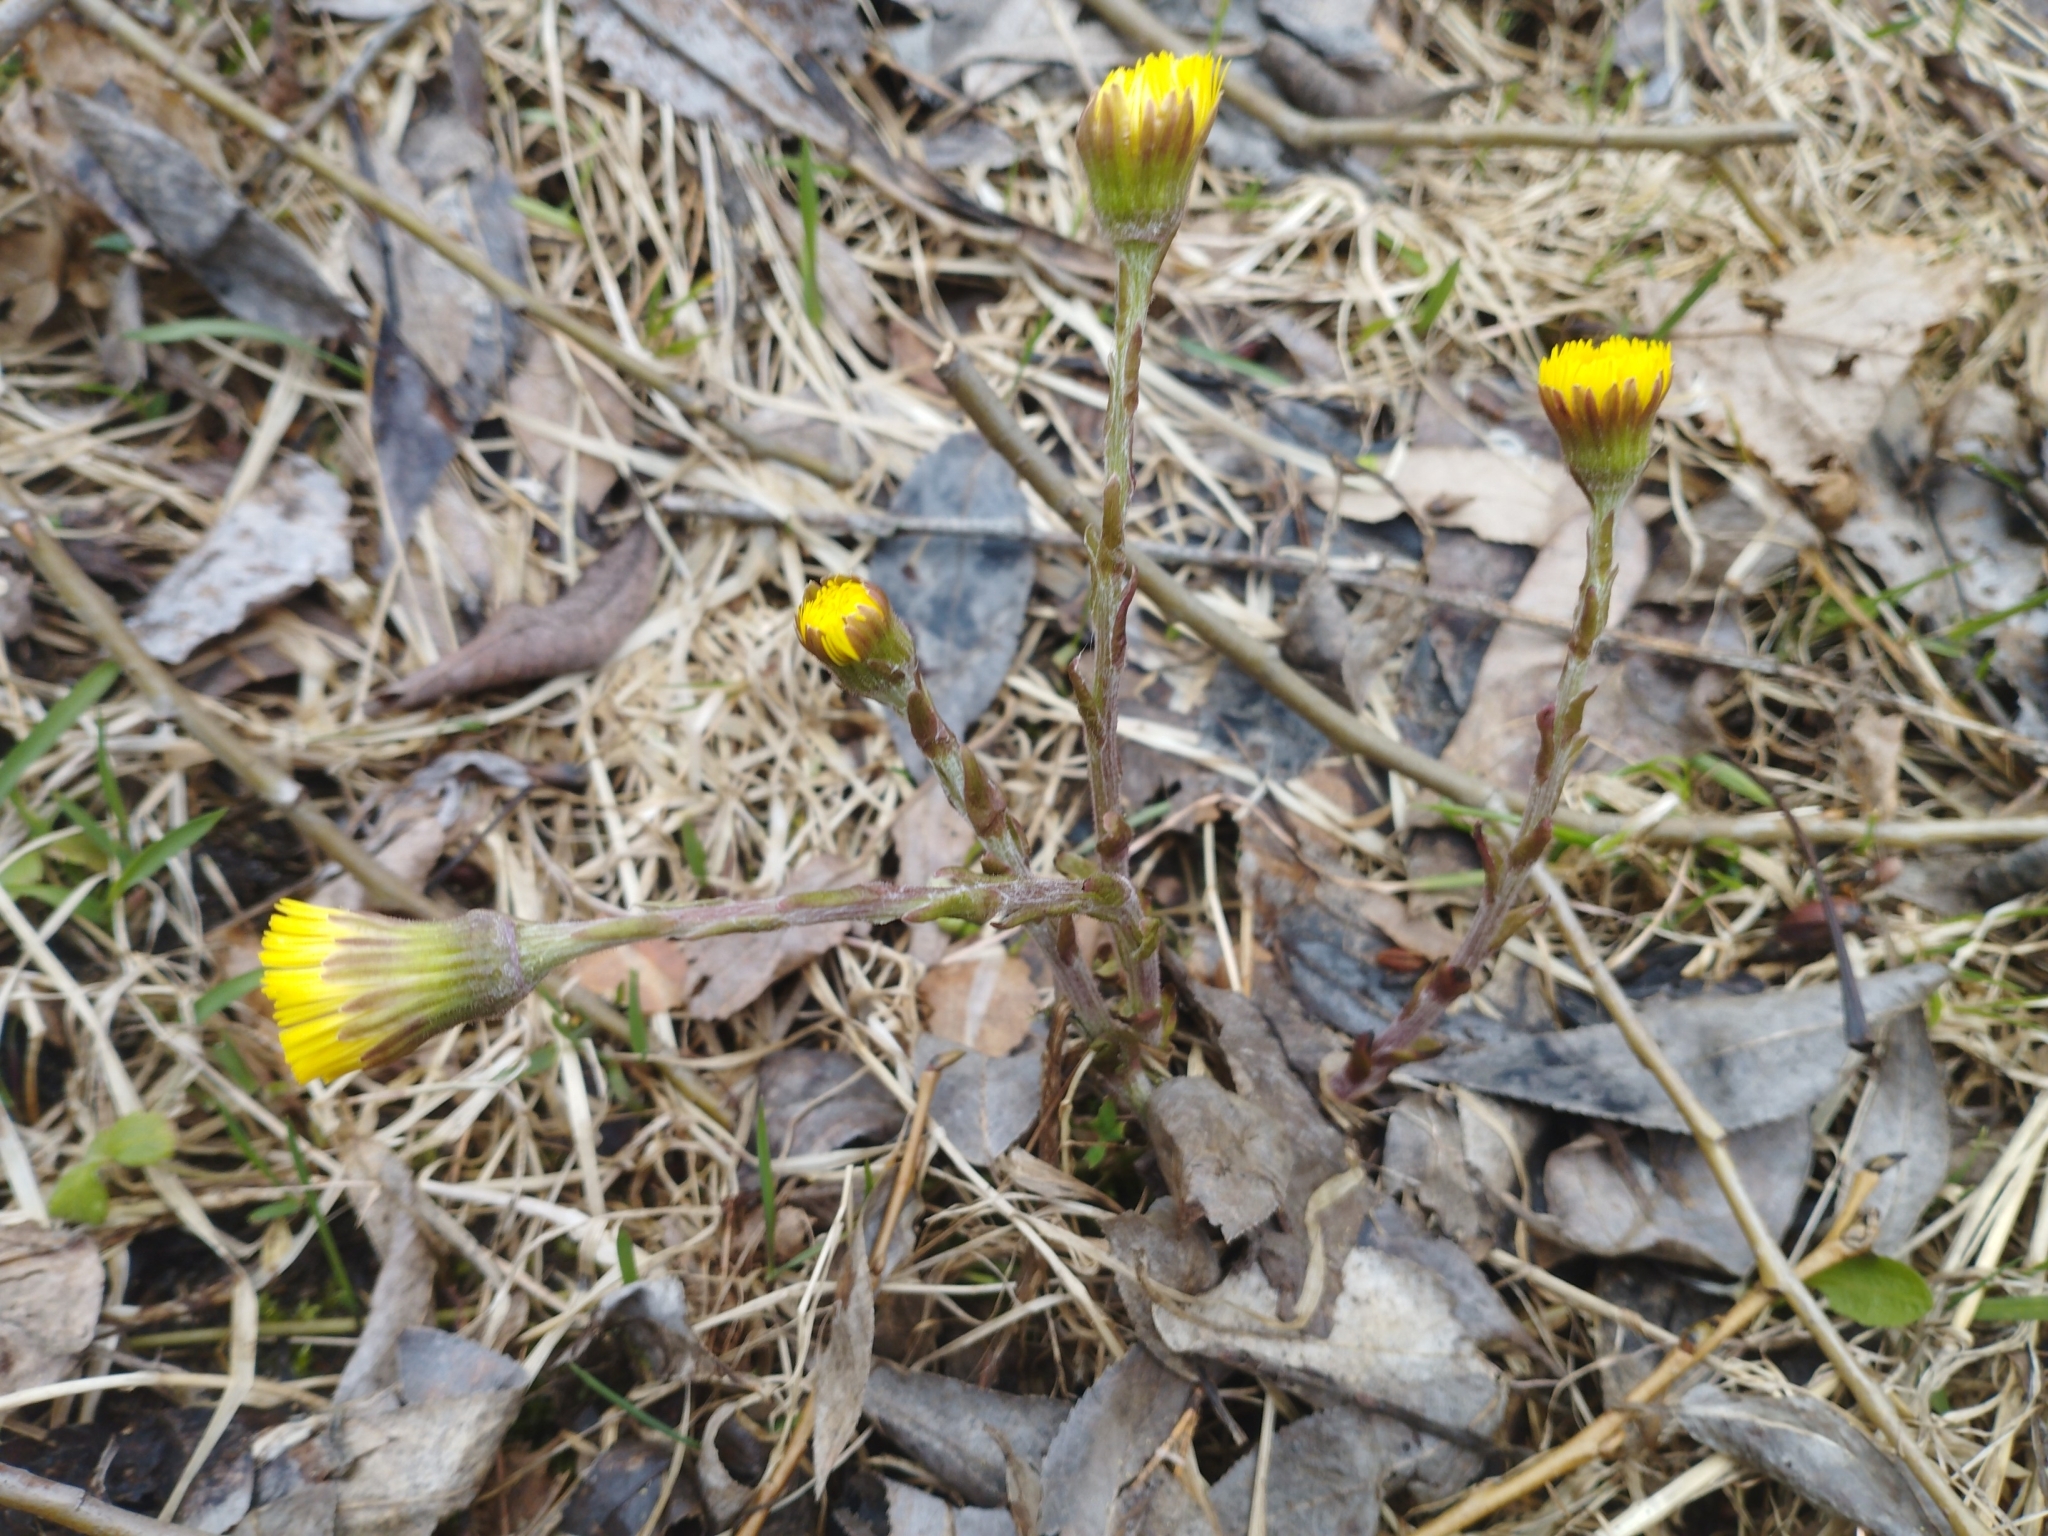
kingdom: Plantae
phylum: Tracheophyta
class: Magnoliopsida
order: Asterales
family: Asteraceae
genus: Tussilago
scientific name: Tussilago farfara
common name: Coltsfoot
